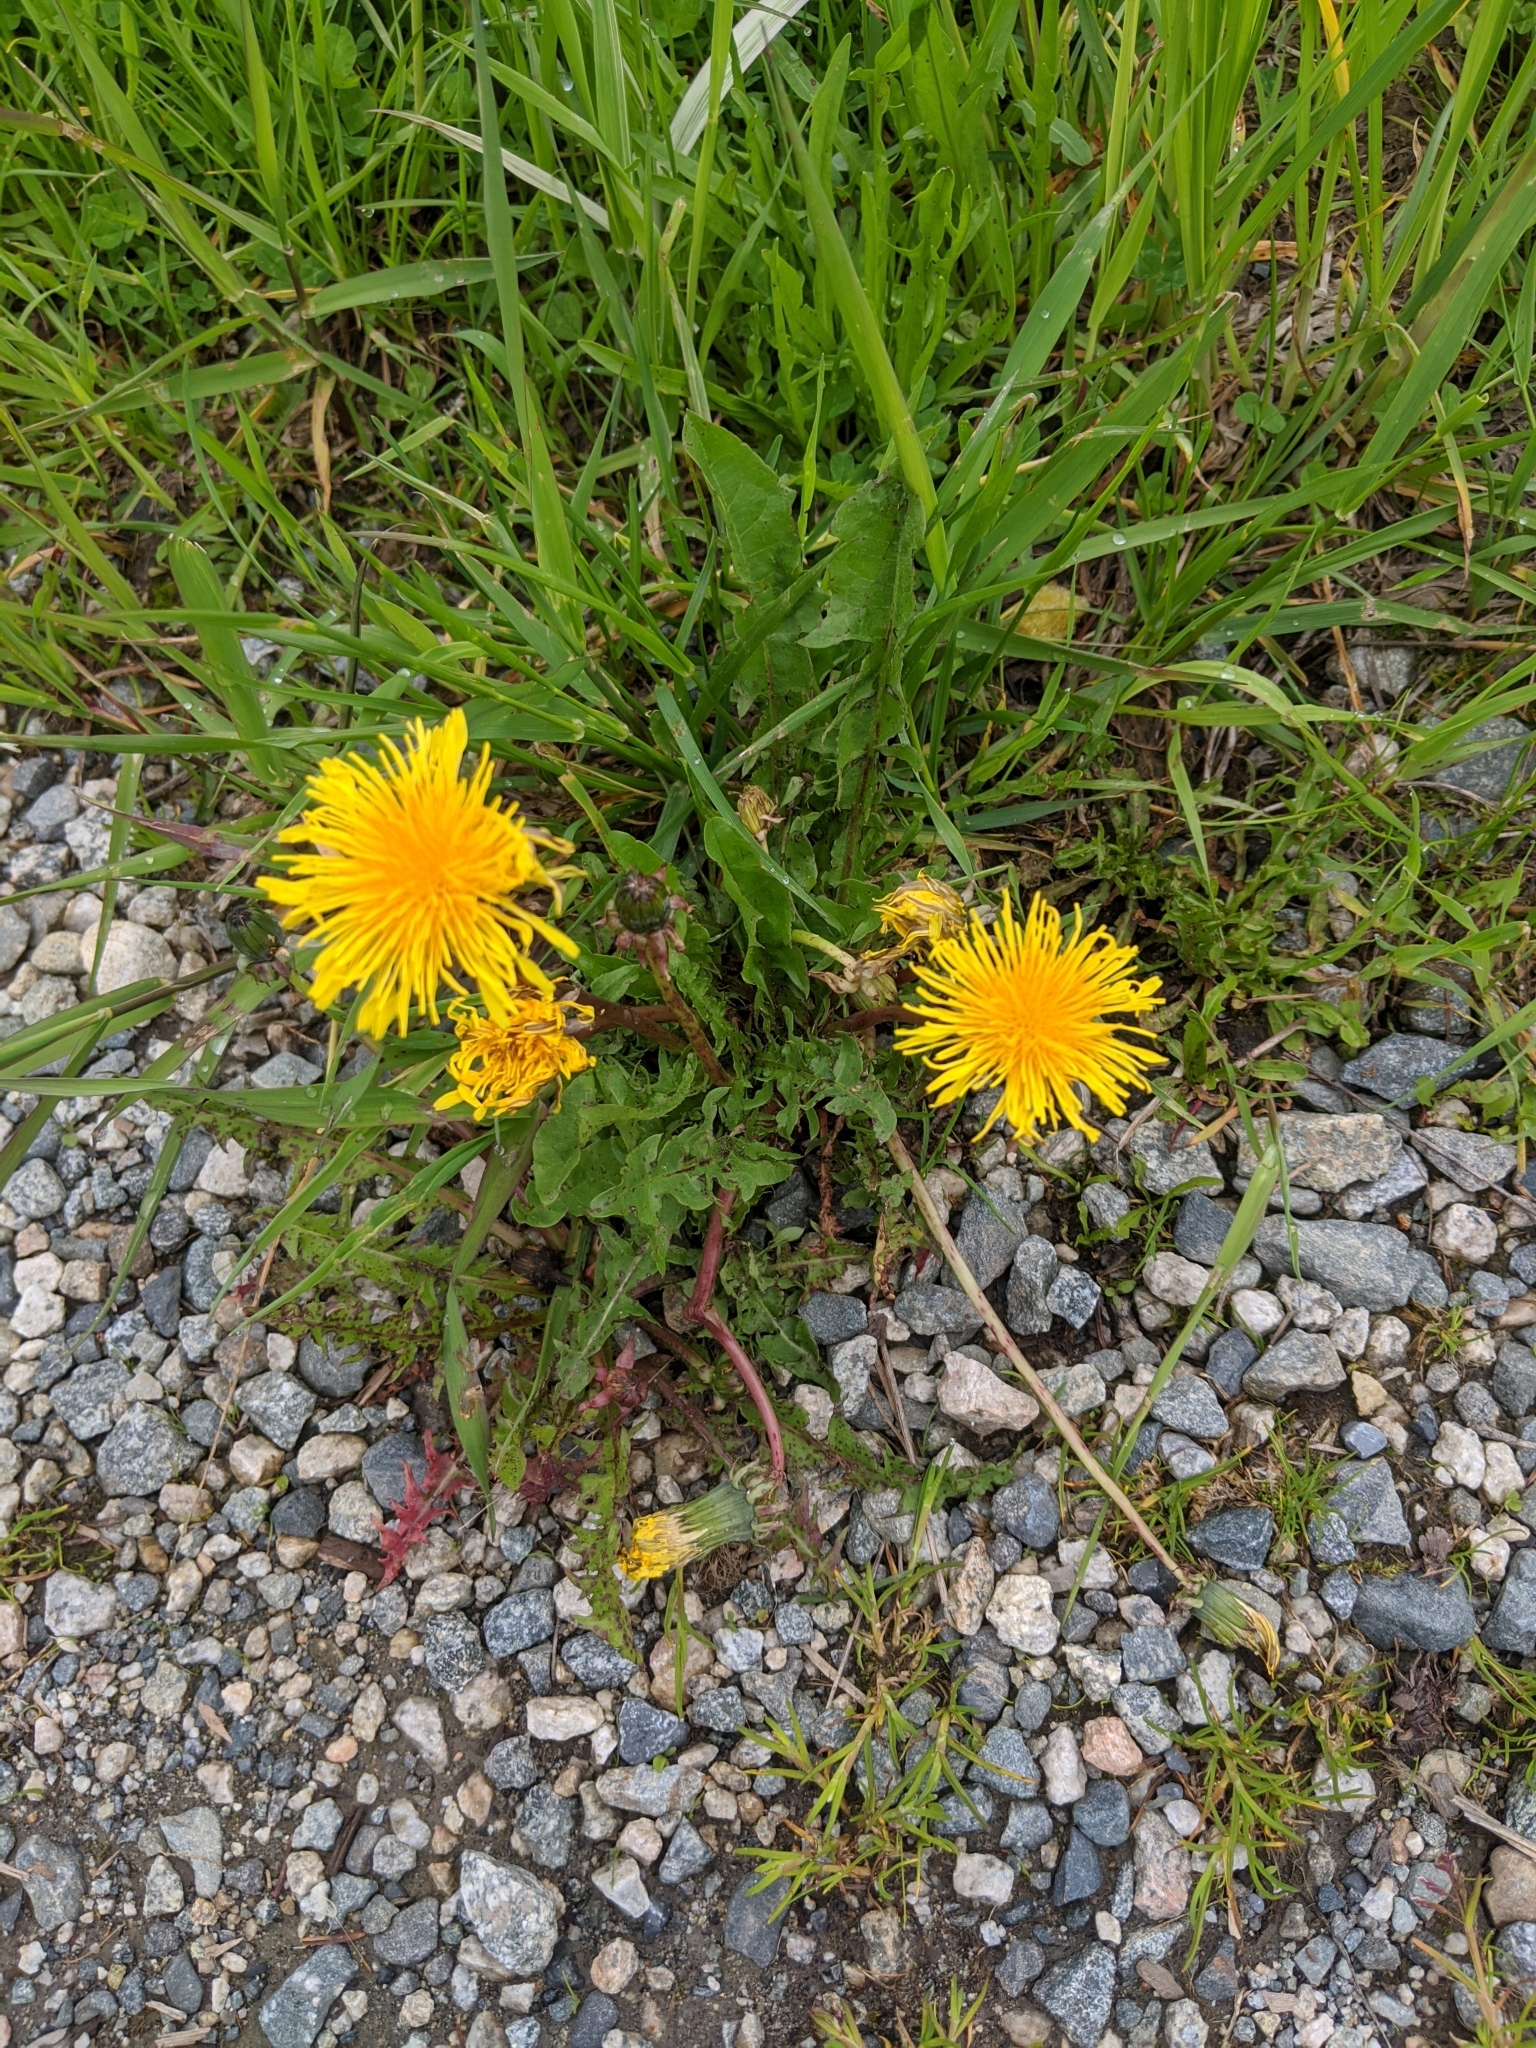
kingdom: Plantae
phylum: Tracheophyta
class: Magnoliopsida
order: Asterales
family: Asteraceae
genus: Taraxacum
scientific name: Taraxacum officinale
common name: Common dandelion
